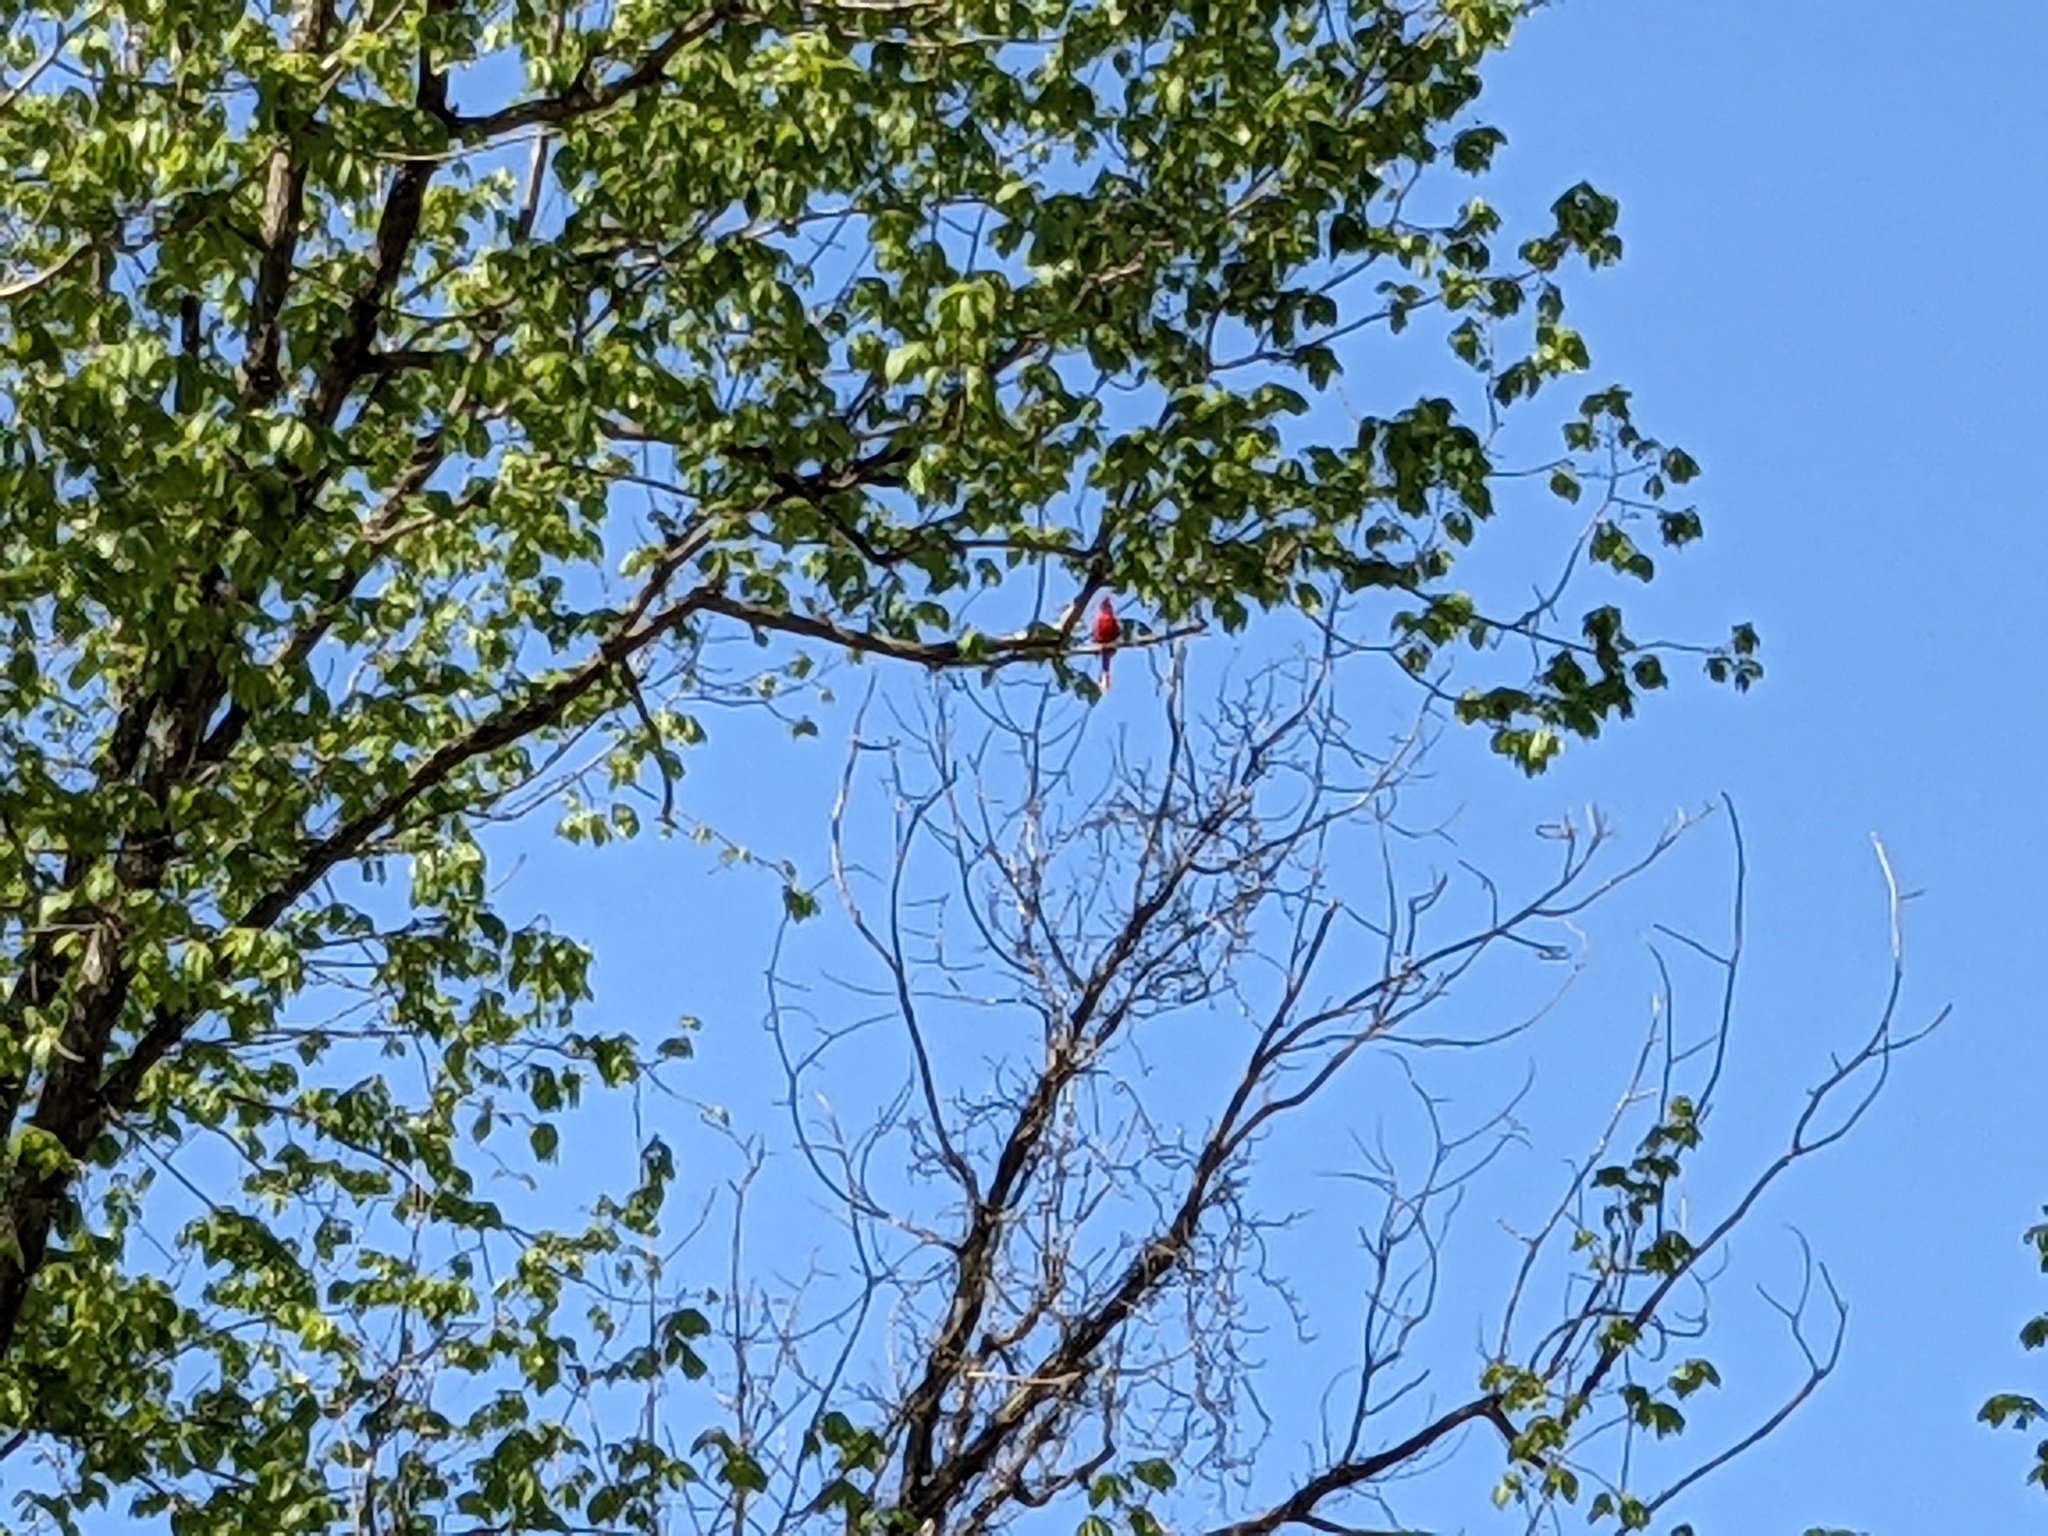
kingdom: Animalia
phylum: Chordata
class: Aves
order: Passeriformes
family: Cardinalidae
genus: Cardinalis
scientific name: Cardinalis cardinalis
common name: Northern cardinal
